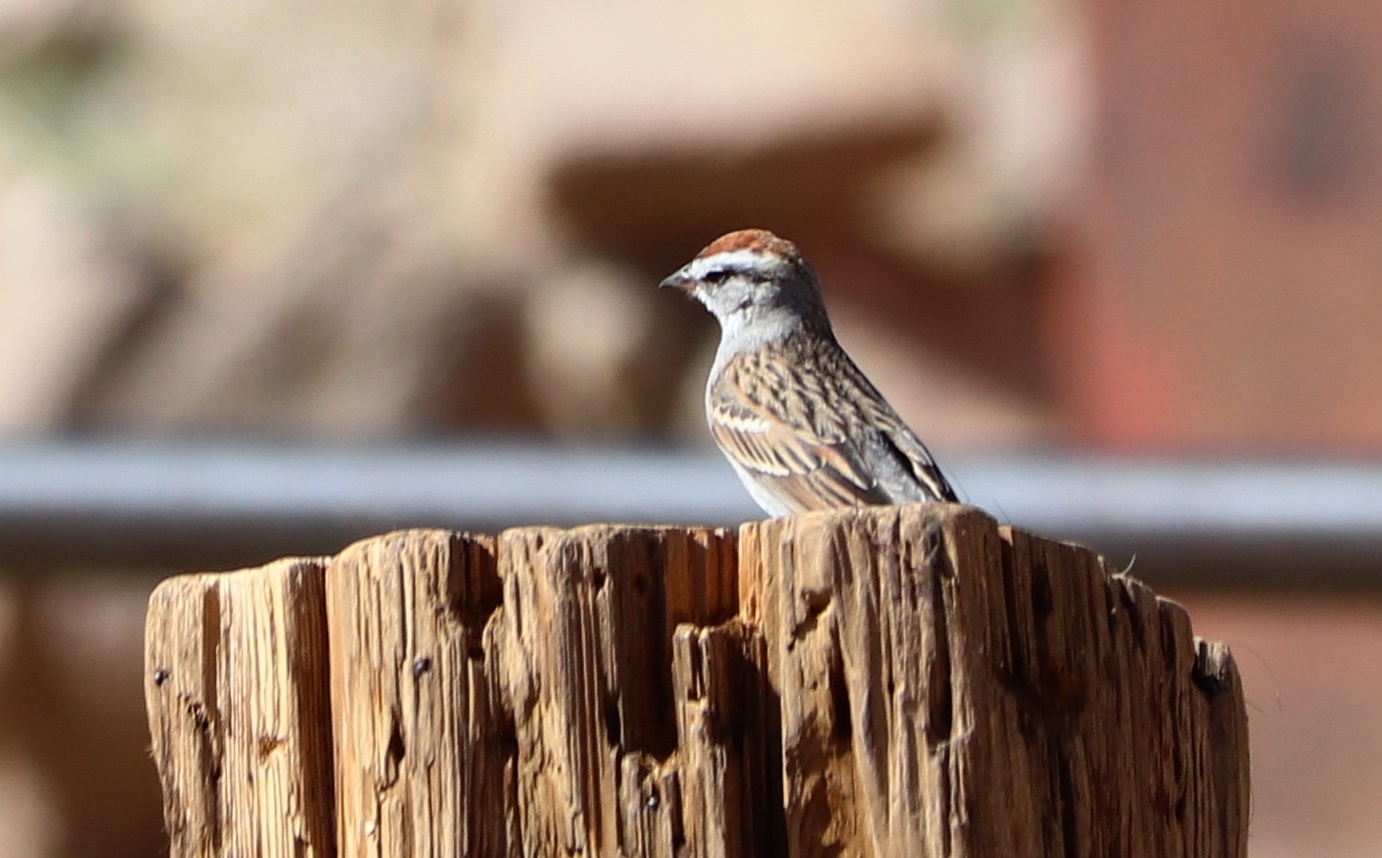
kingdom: Animalia
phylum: Chordata
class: Aves
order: Passeriformes
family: Passerellidae
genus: Spizella
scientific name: Spizella passerina
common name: Chipping sparrow
